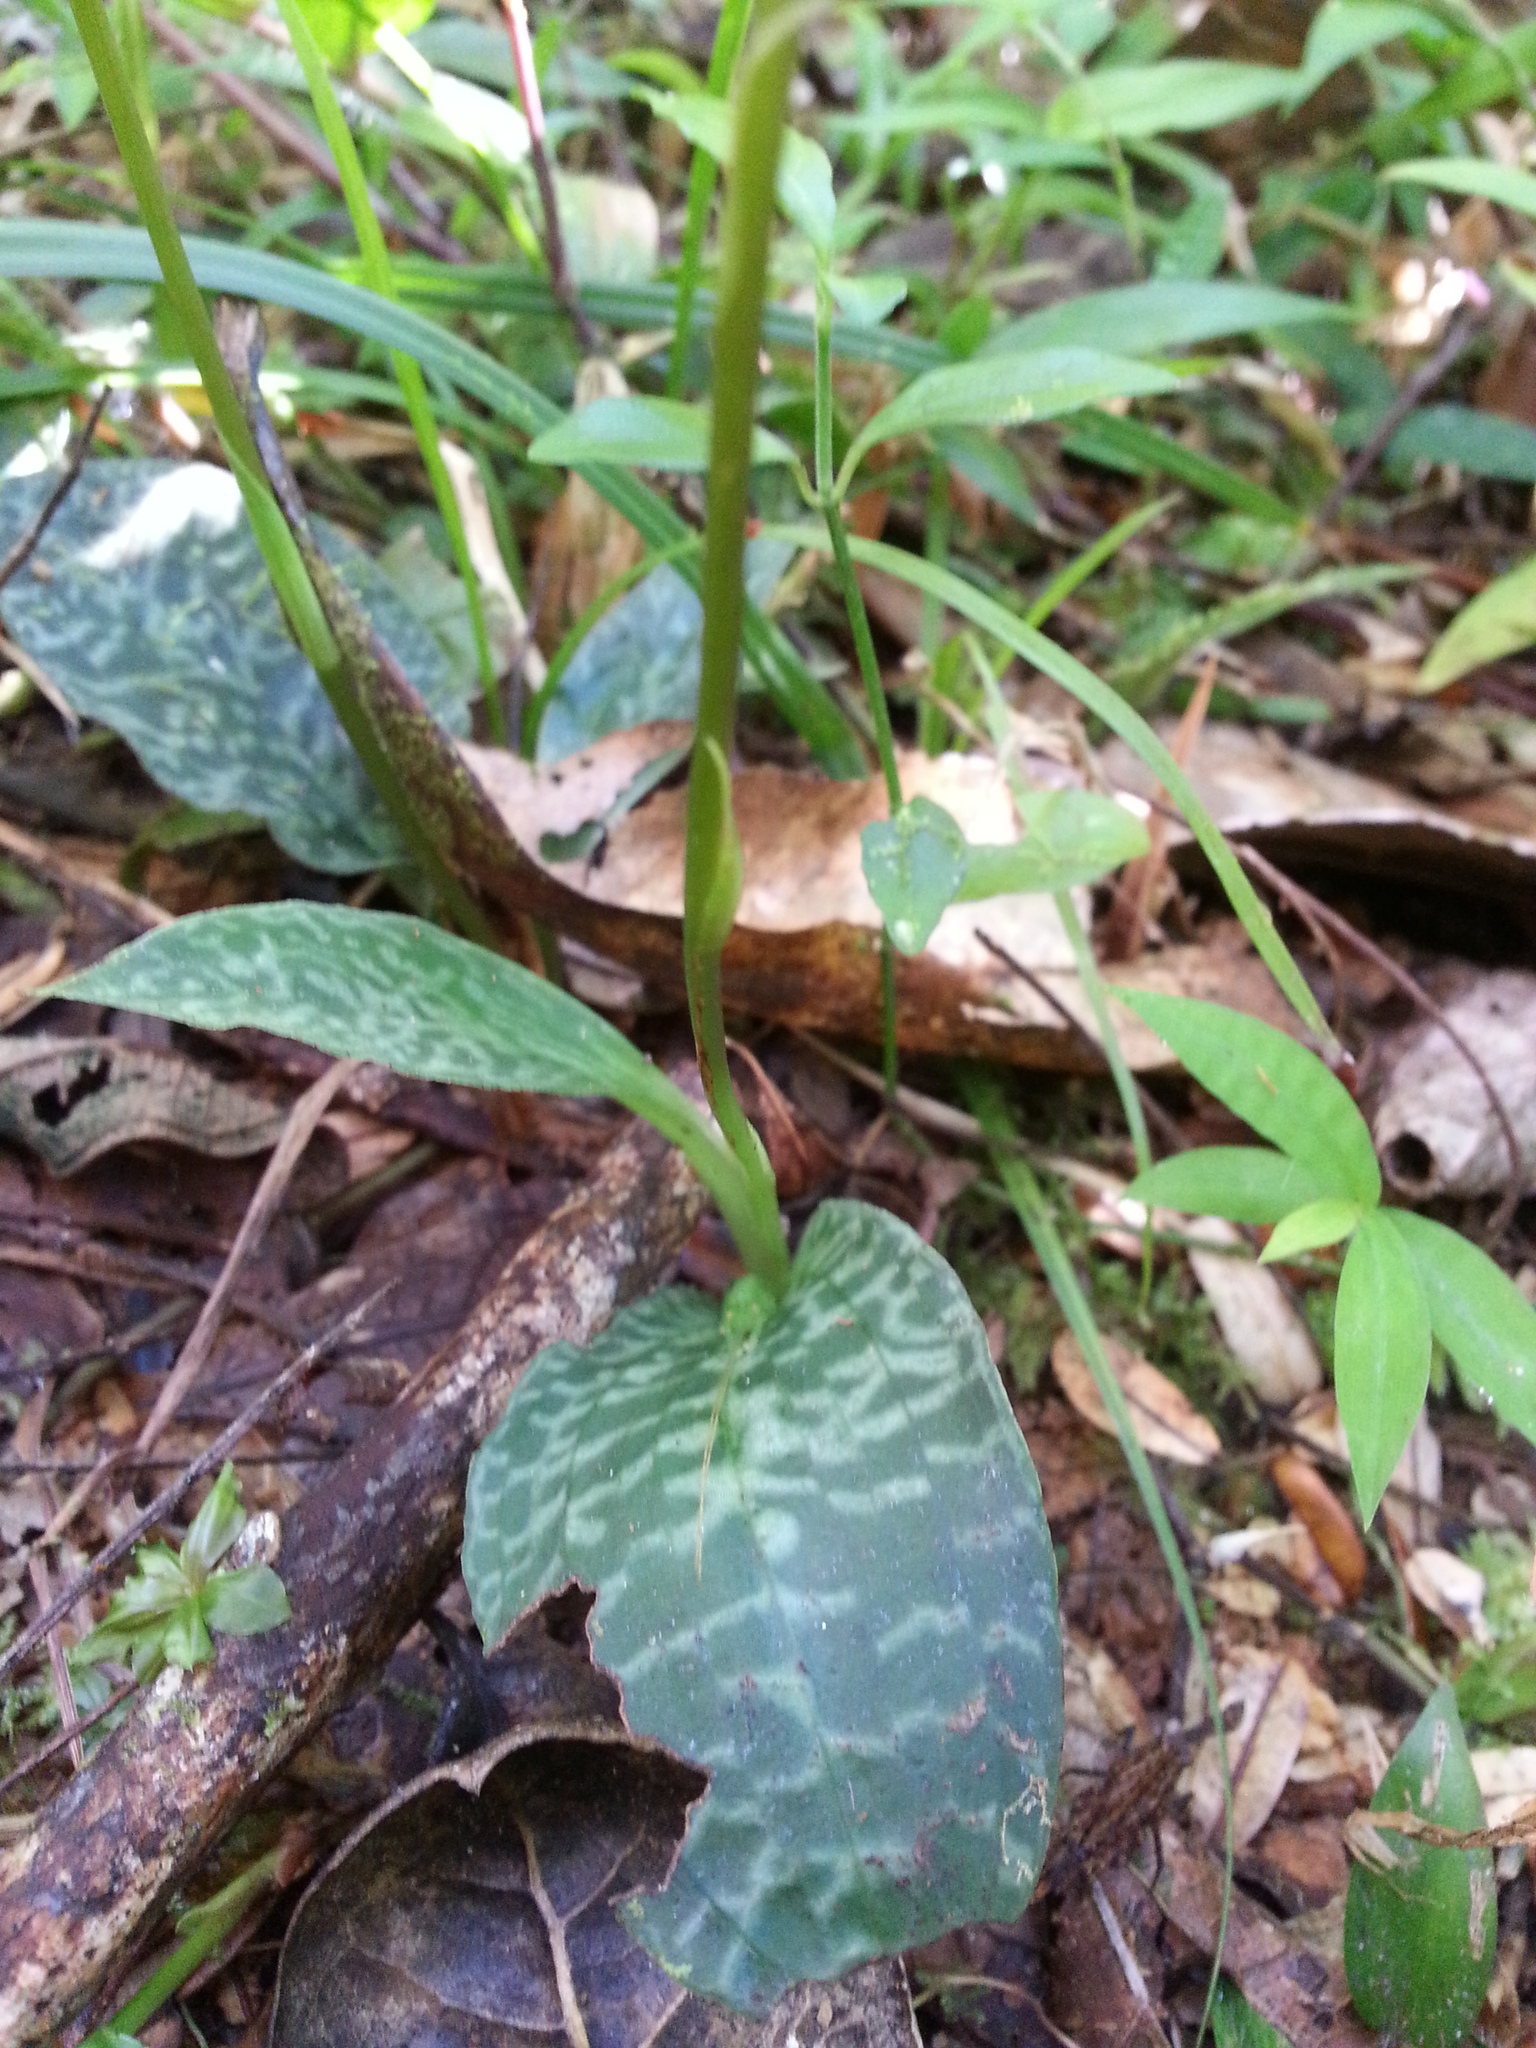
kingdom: Plantae
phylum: Tracheophyta
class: Liliopsida
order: Asparagales
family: Orchidaceae
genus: Cynorkis
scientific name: Cynorkis ridleyi
